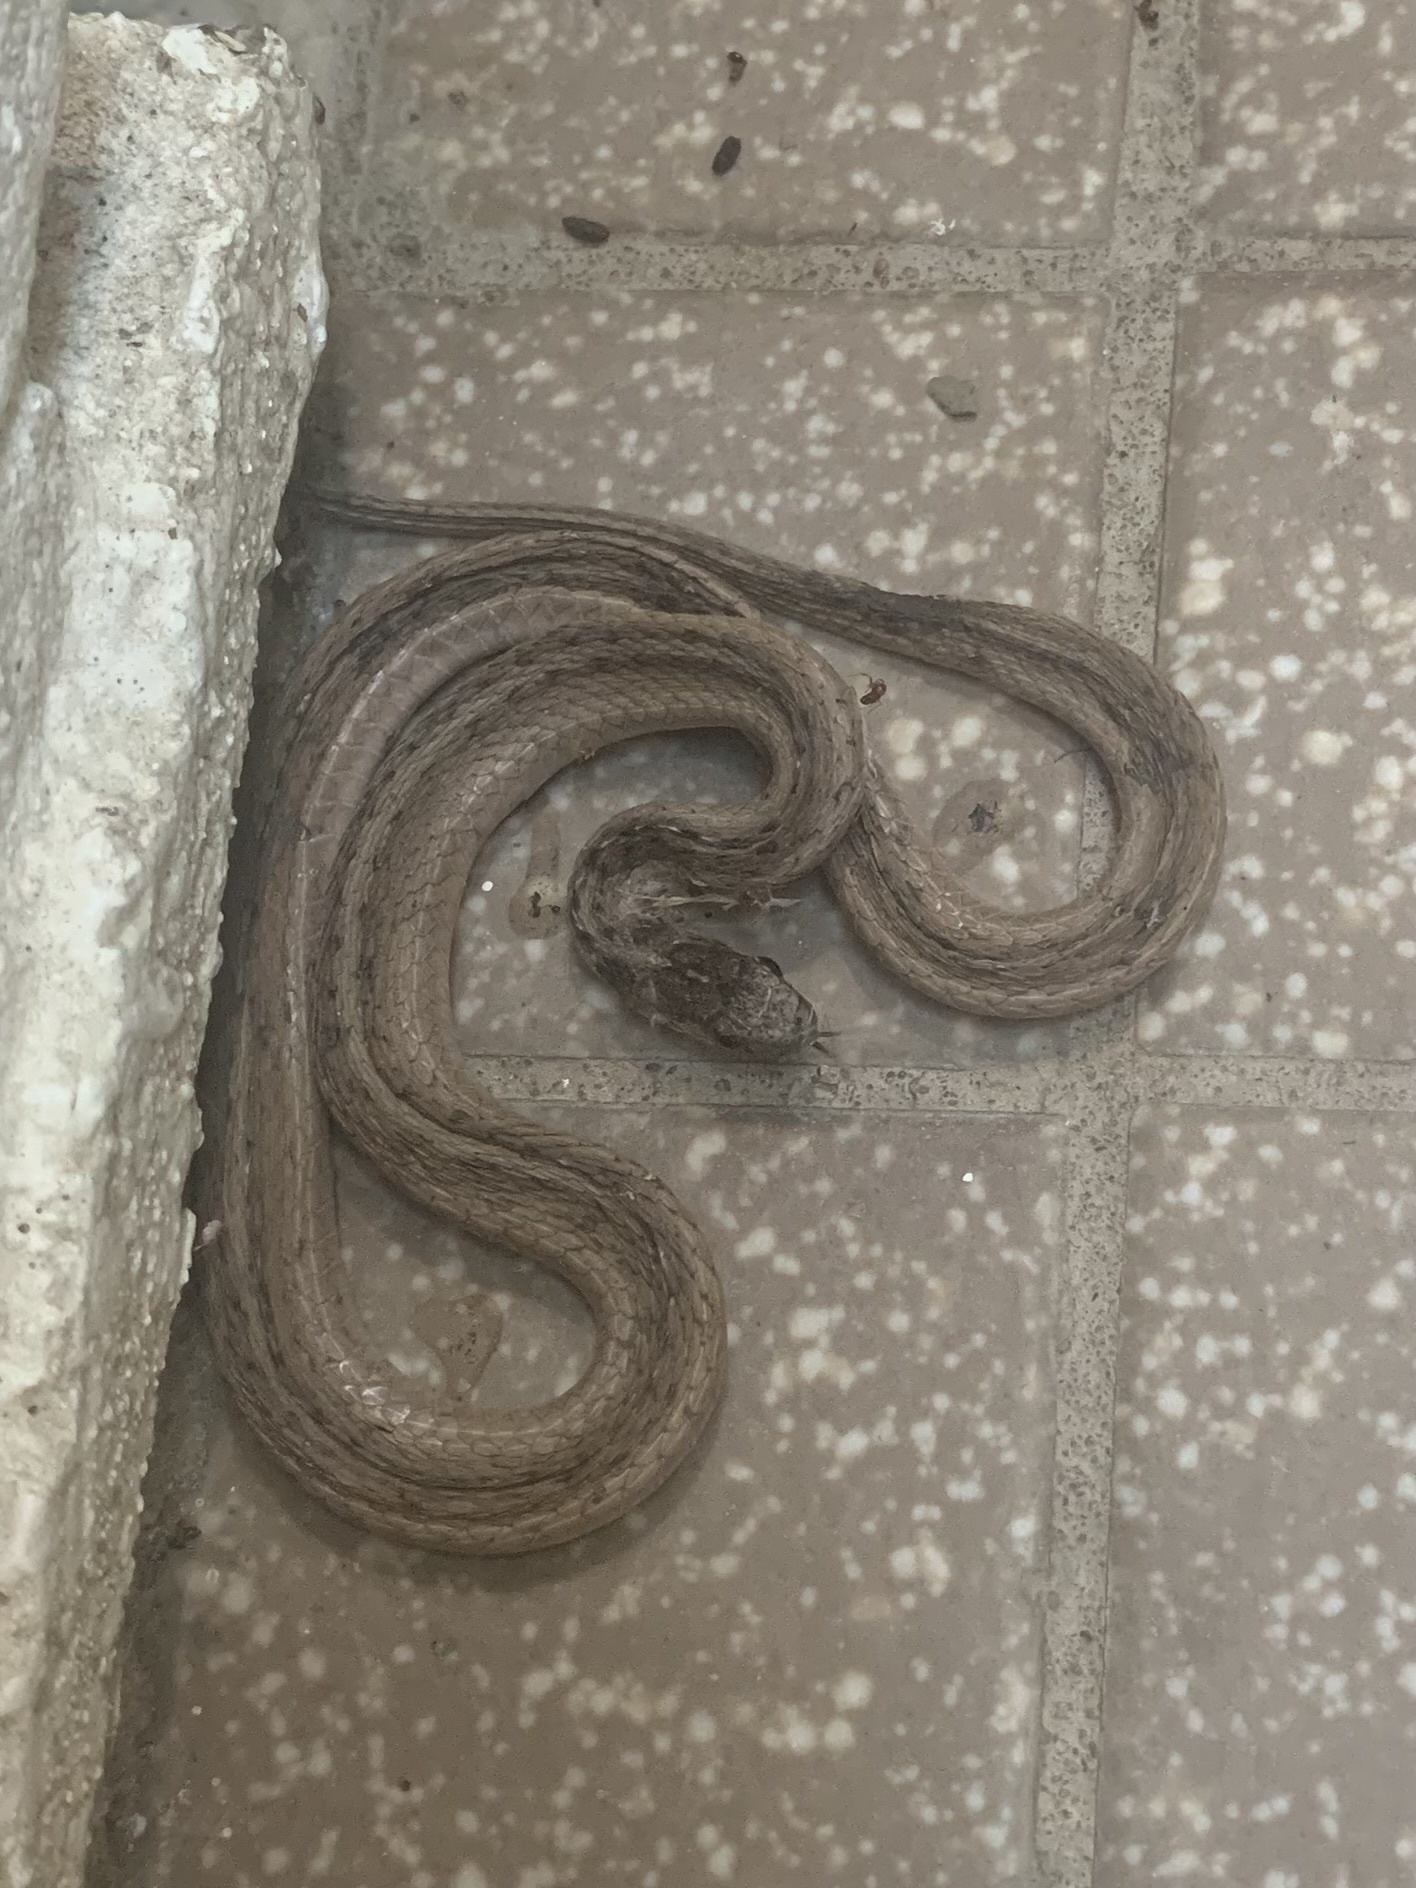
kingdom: Animalia
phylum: Chordata
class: Squamata
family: Colubridae
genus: Storeria
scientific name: Storeria dekayi
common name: (dekay’s) brown snake
